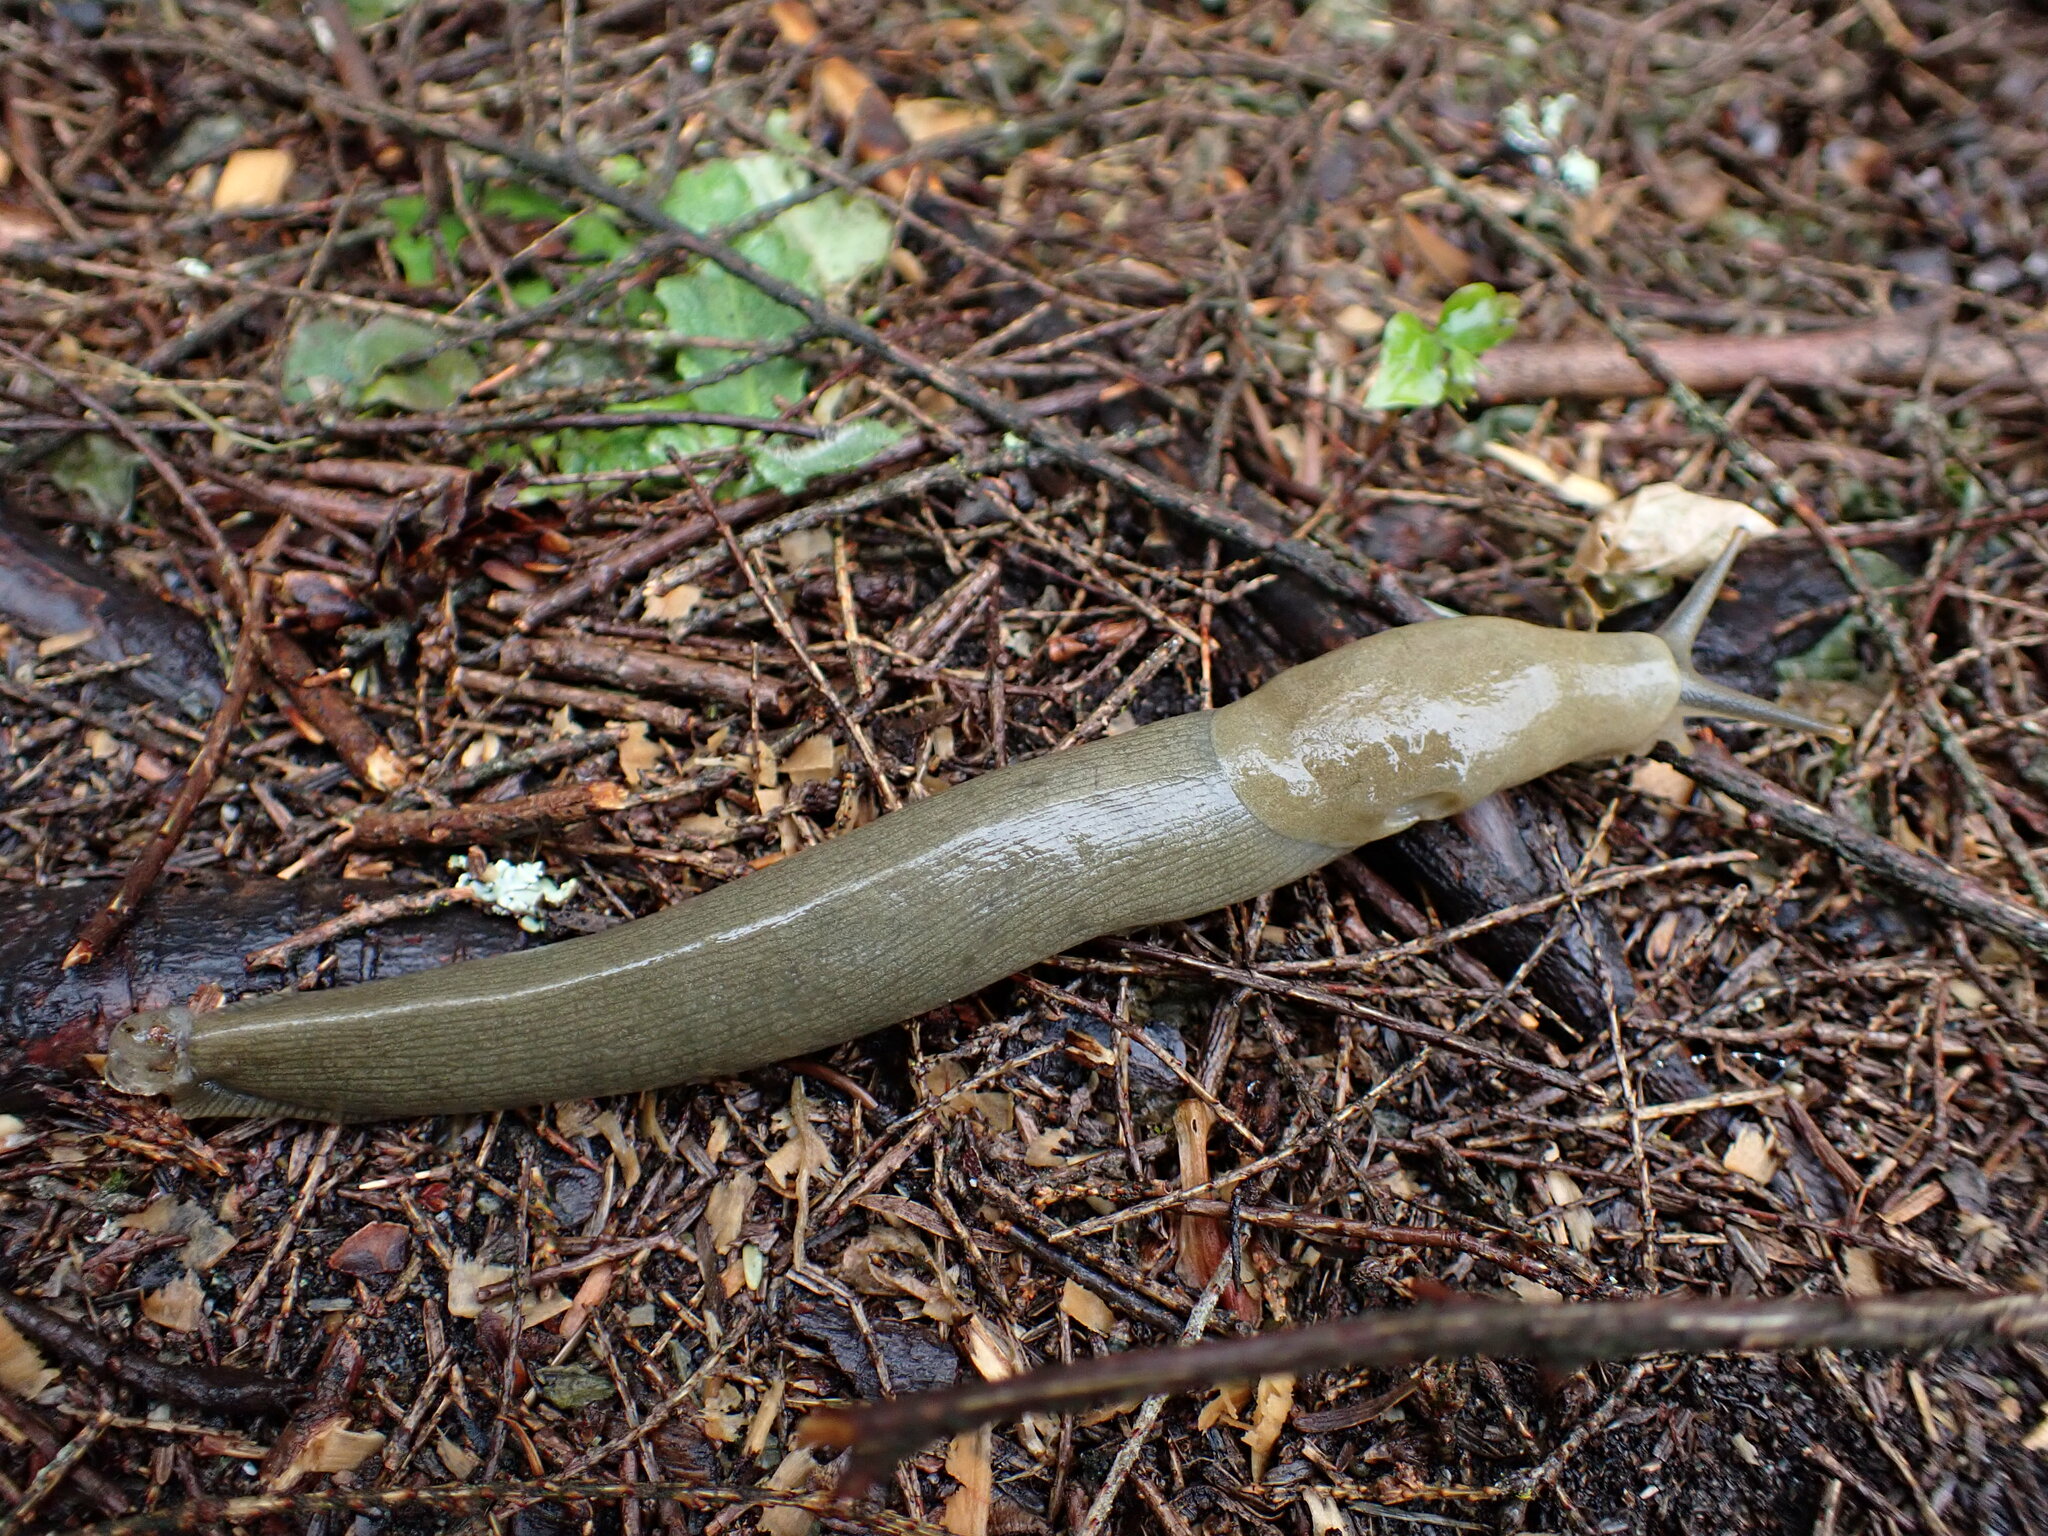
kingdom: Animalia
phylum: Mollusca
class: Gastropoda
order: Stylommatophora
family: Ariolimacidae
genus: Ariolimax
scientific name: Ariolimax columbianus
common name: Pacific banana slug
